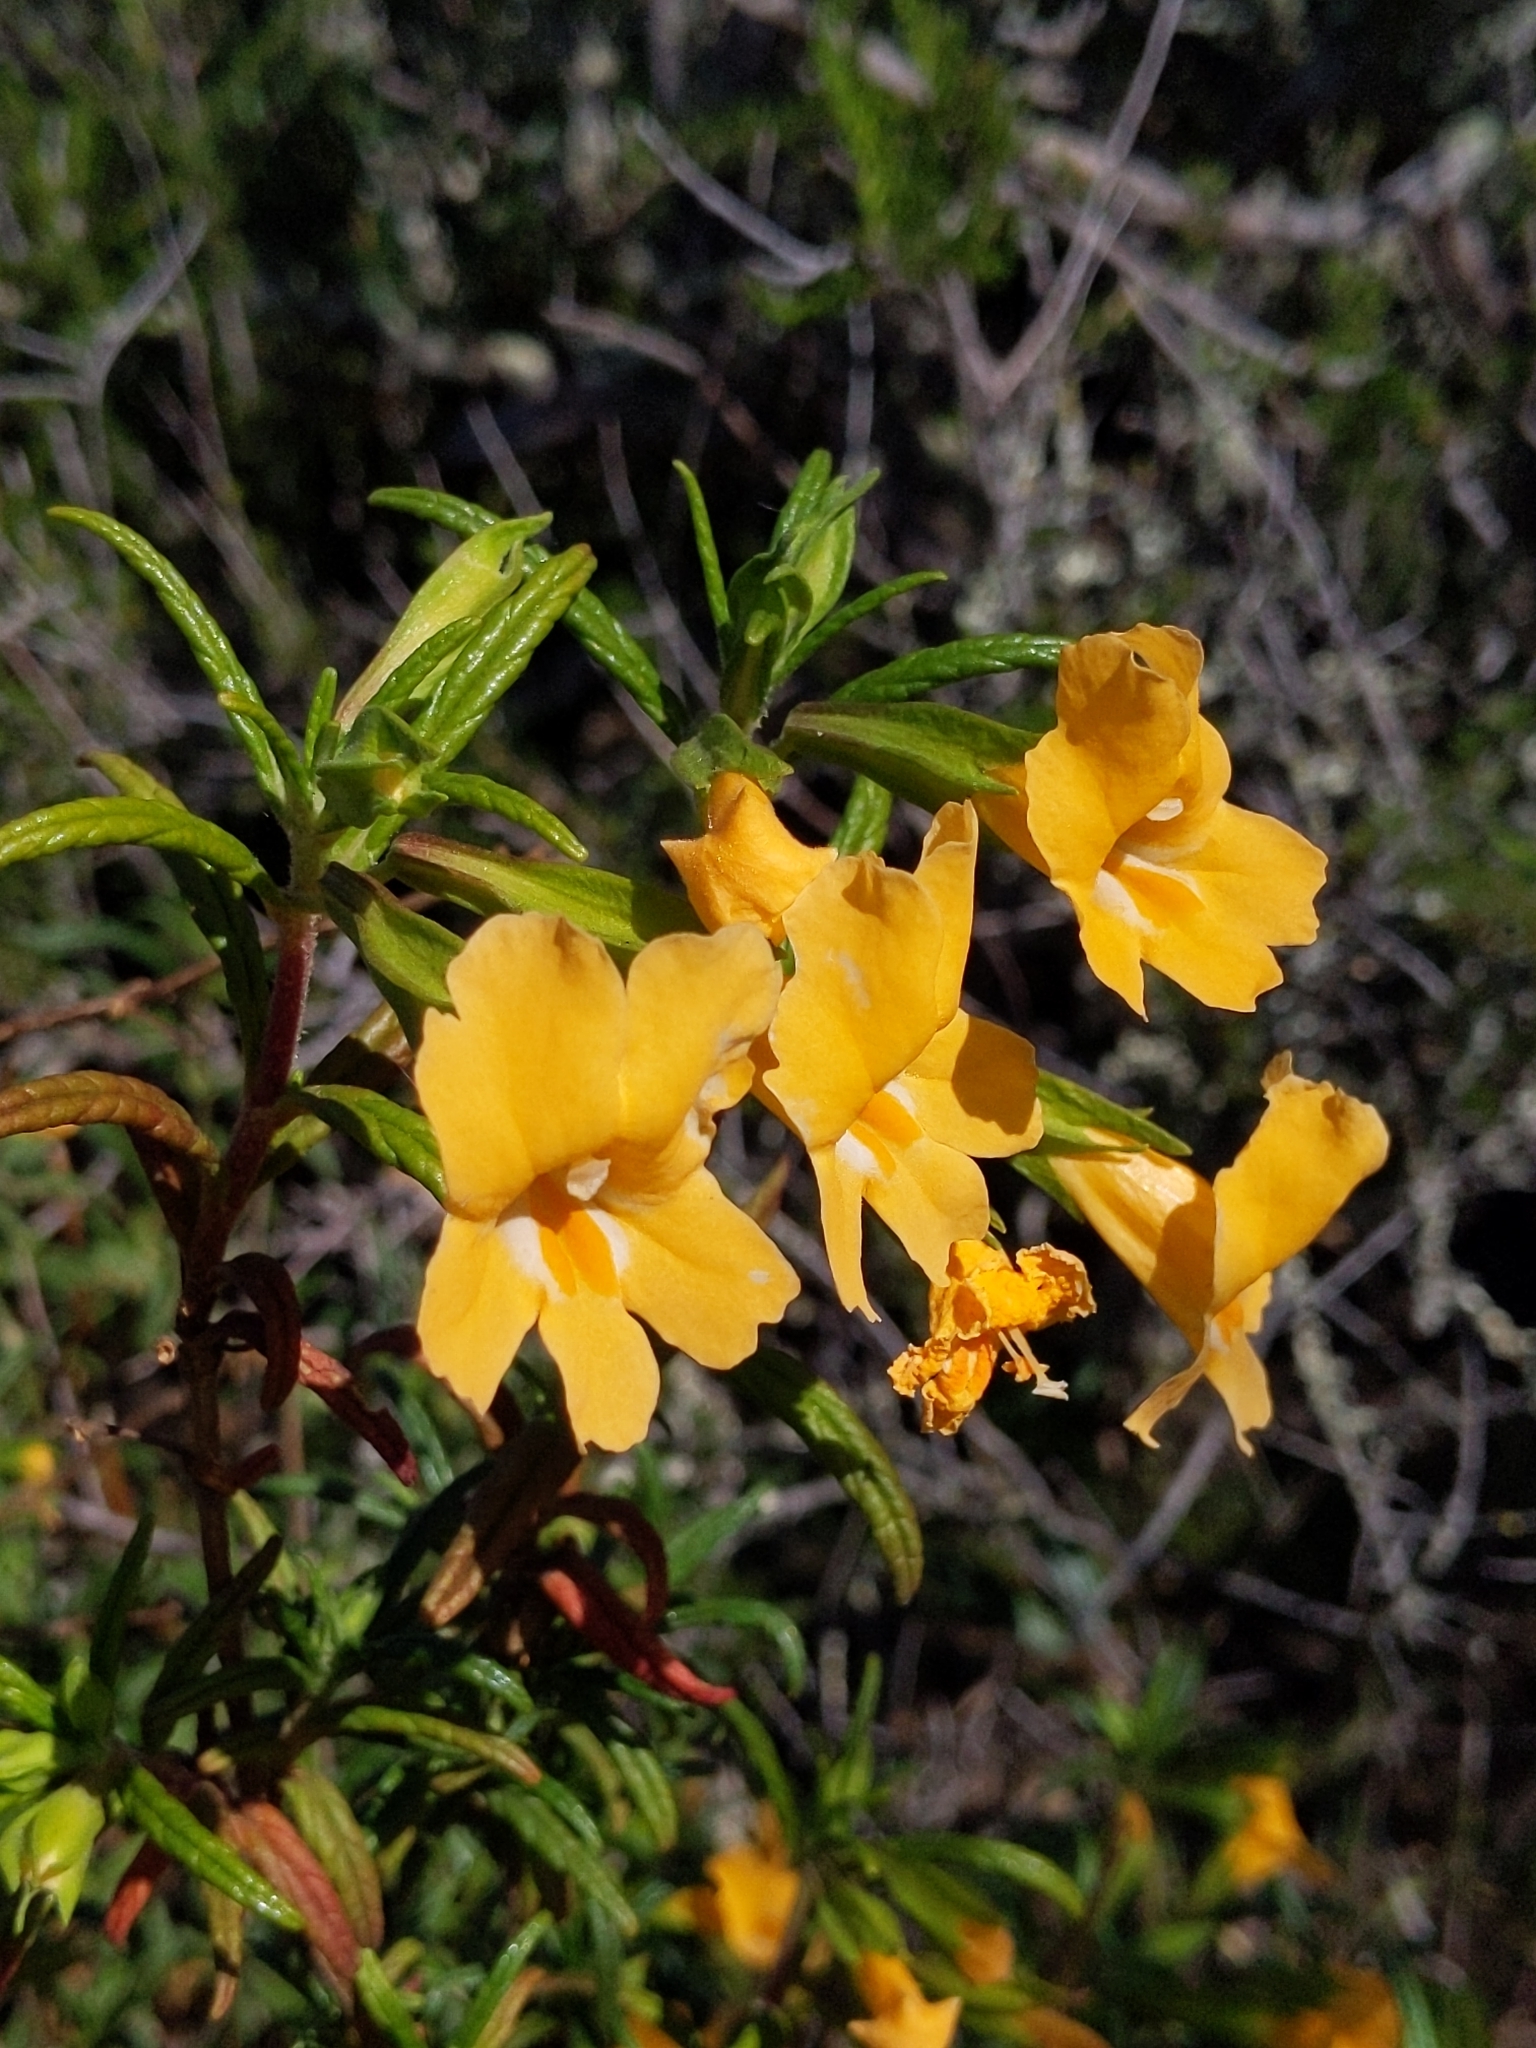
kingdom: Plantae
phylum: Tracheophyta
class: Magnoliopsida
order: Lamiales
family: Phrymaceae
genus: Diplacus
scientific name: Diplacus aurantiacus
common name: Bush monkey-flower
